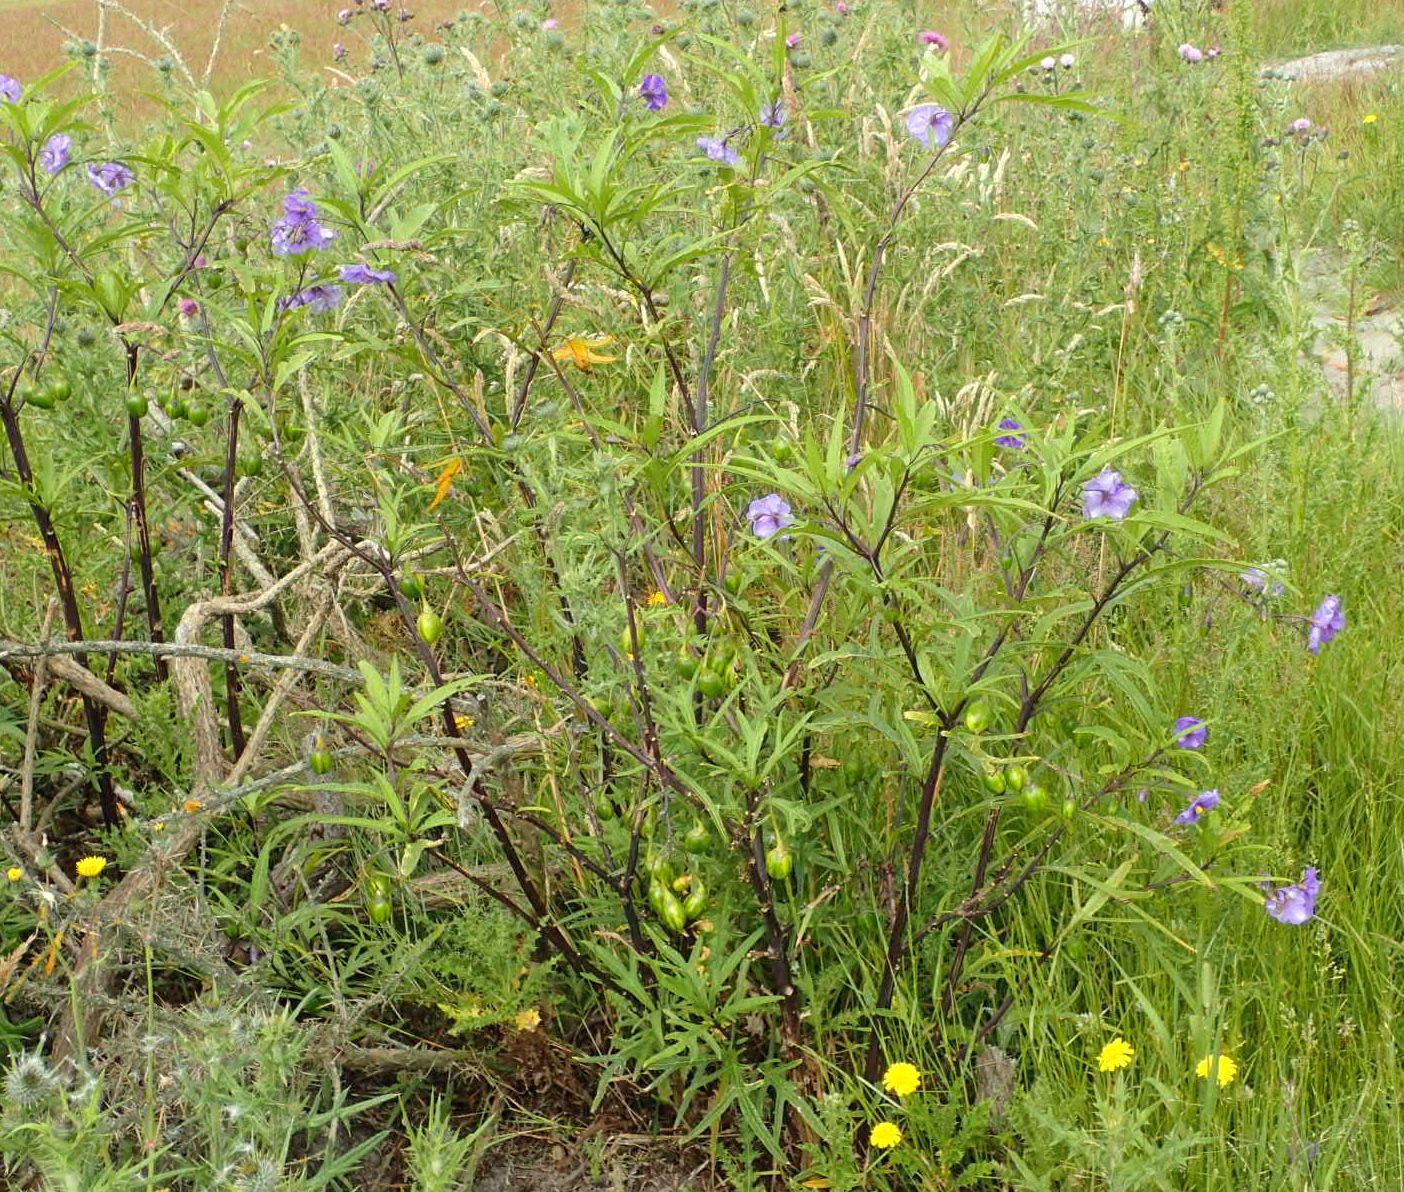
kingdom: Plantae
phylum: Tracheophyta
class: Magnoliopsida
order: Solanales
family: Solanaceae
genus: Solanum
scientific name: Solanum laciniatum
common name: Kangaroo-apple
